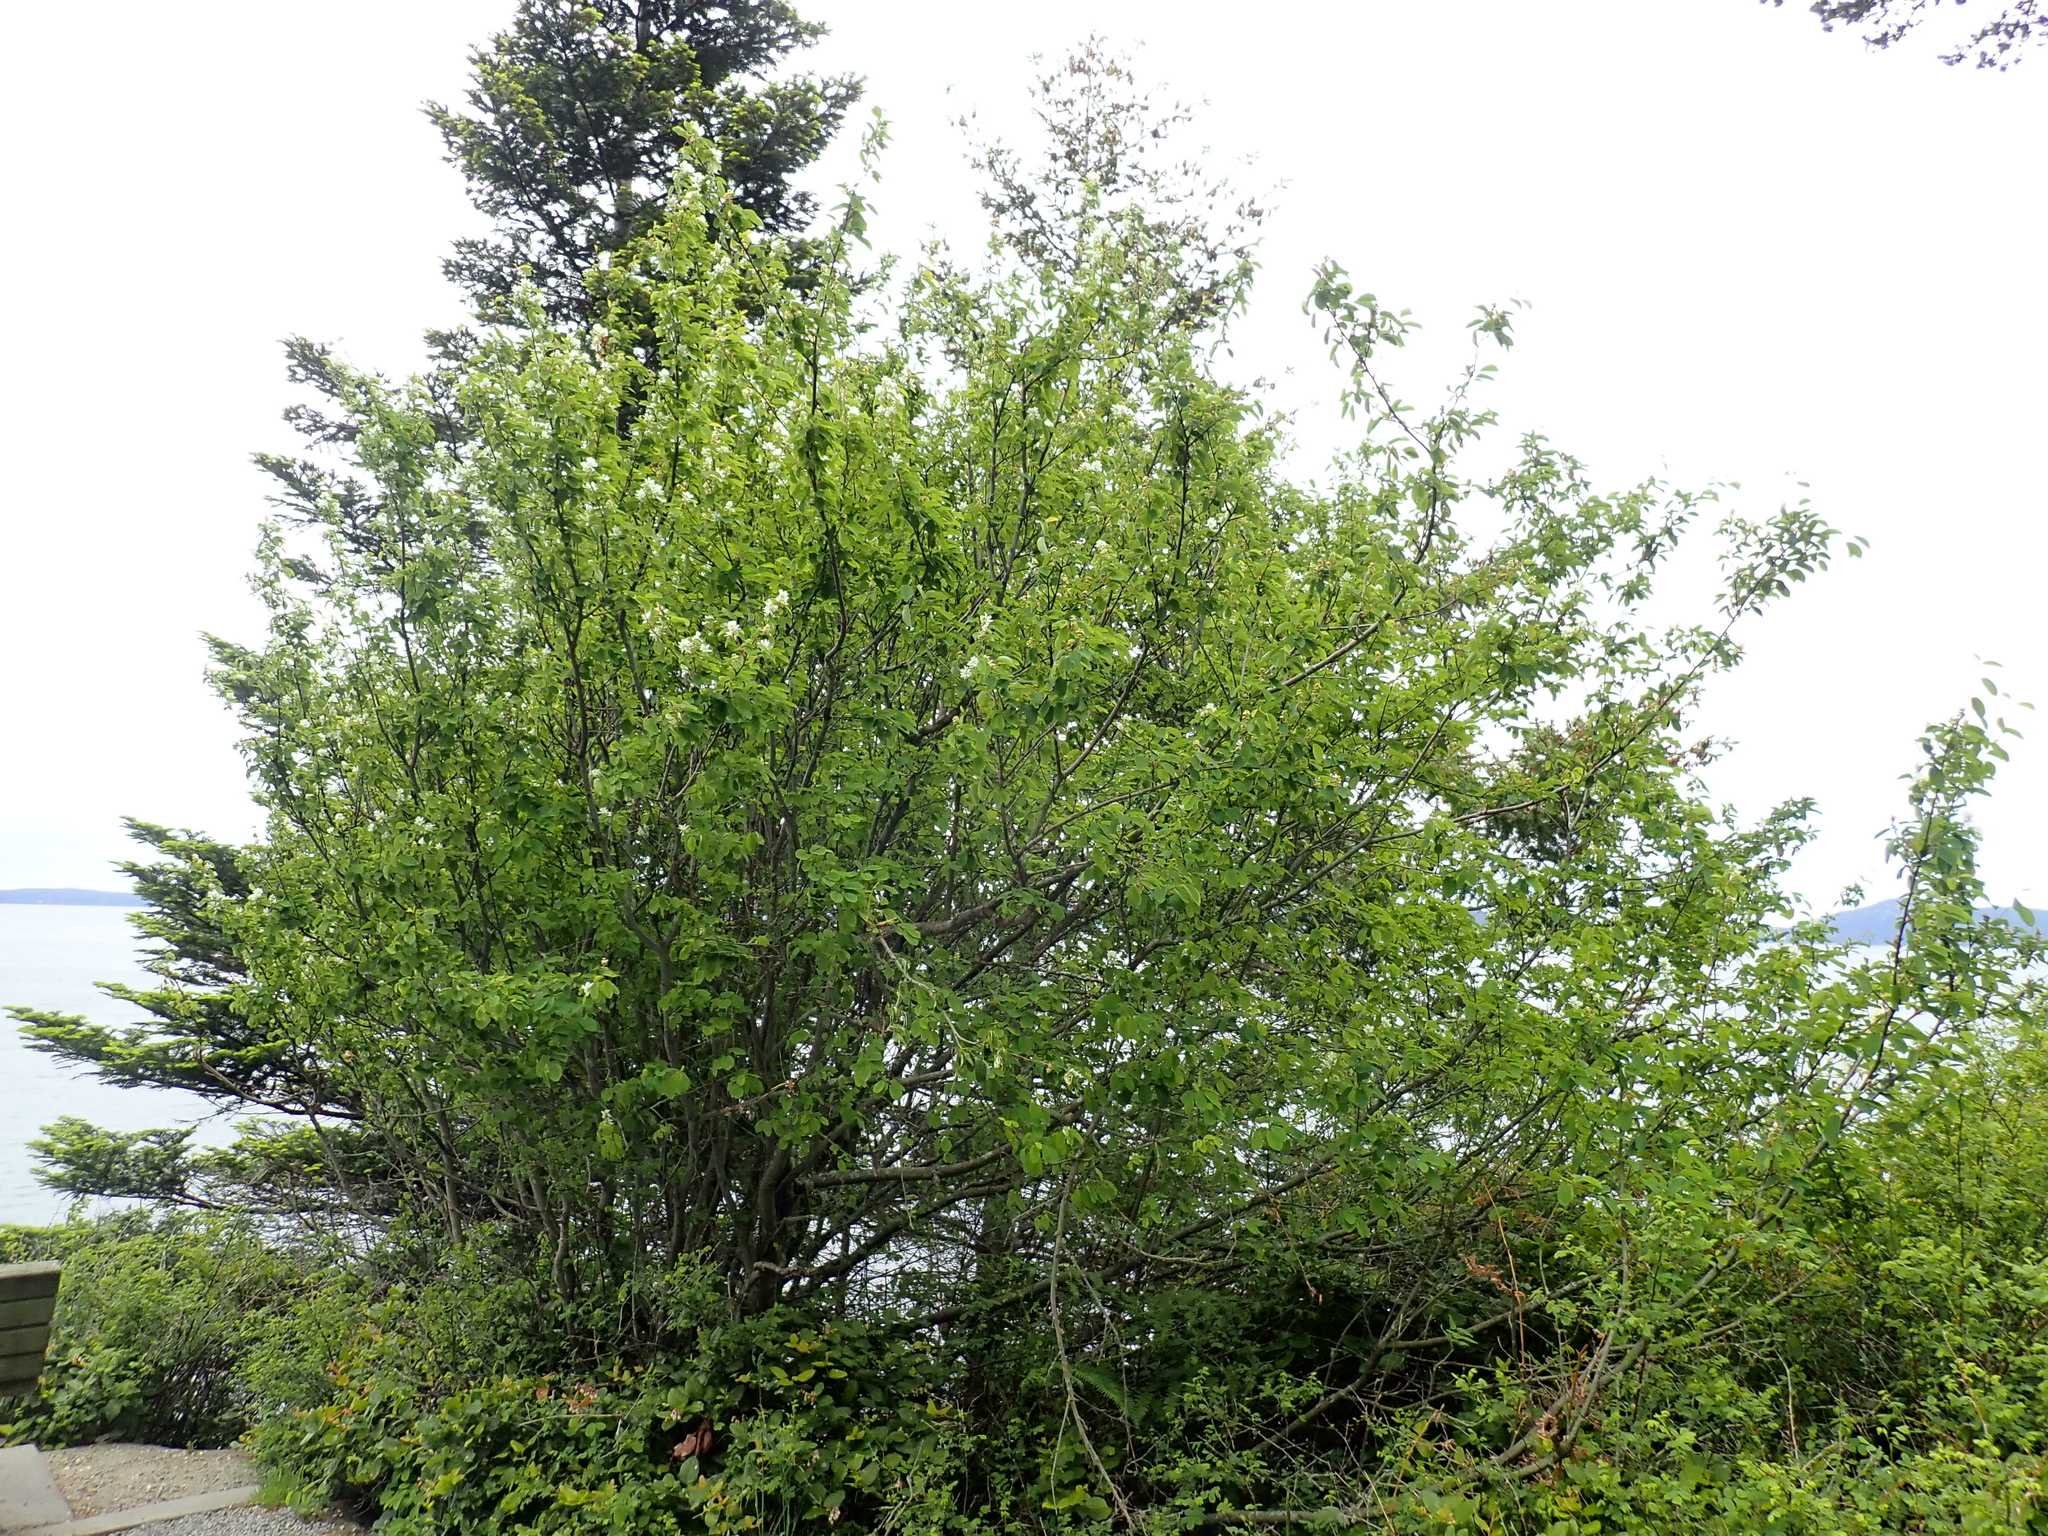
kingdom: Plantae
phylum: Tracheophyta
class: Magnoliopsida
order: Rosales
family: Rosaceae
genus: Amelanchier
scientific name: Amelanchier alnifolia
